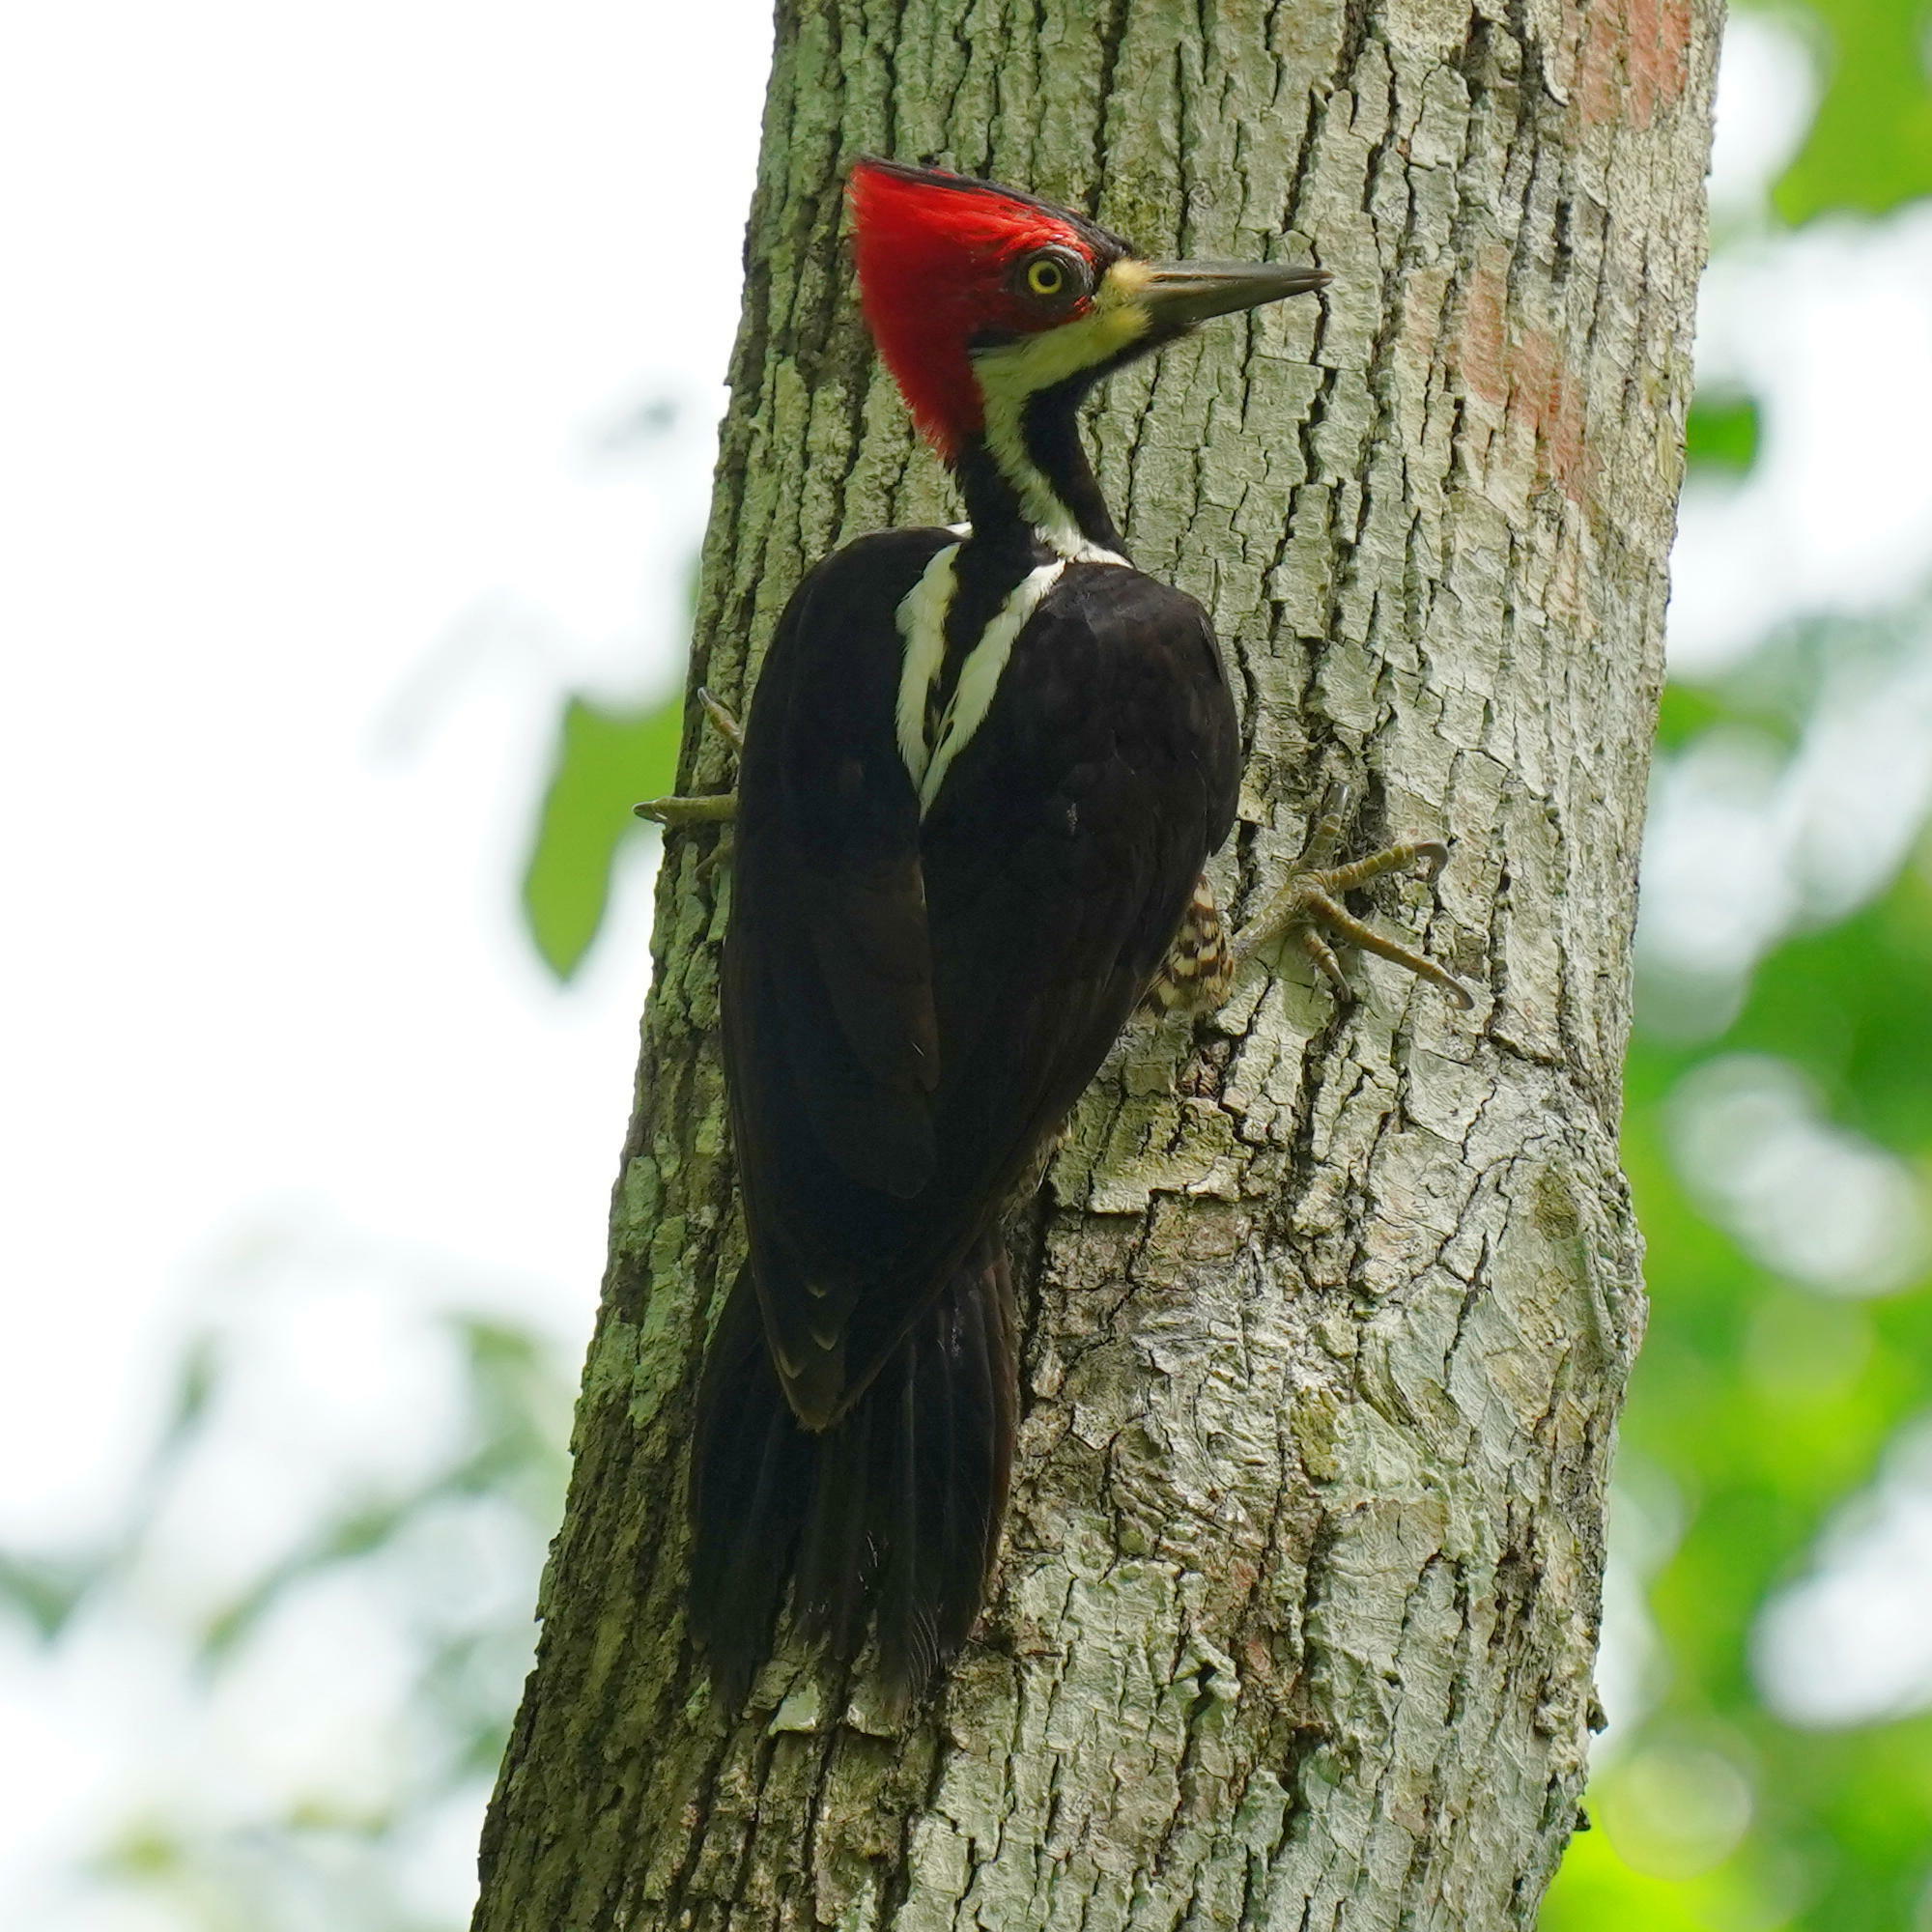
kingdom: Animalia
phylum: Chordata
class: Aves
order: Piciformes
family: Picidae
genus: Campephilus
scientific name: Campephilus melanoleucos
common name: Crimson-crested woodpecker
